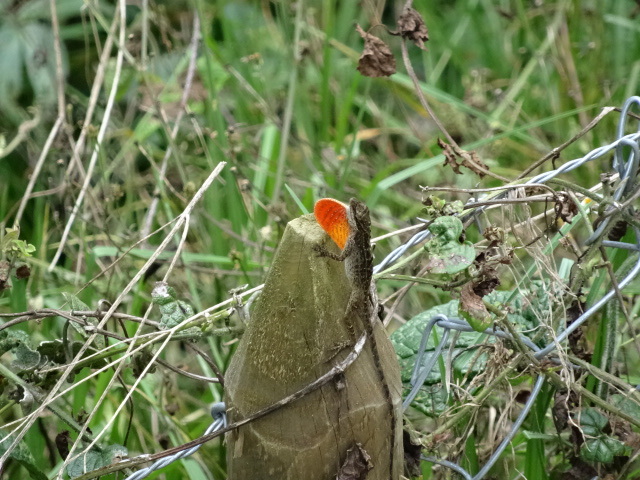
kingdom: Animalia
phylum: Chordata
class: Squamata
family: Dactyloidae
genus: Anolis
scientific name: Anolis mariarum
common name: Blemished anole
